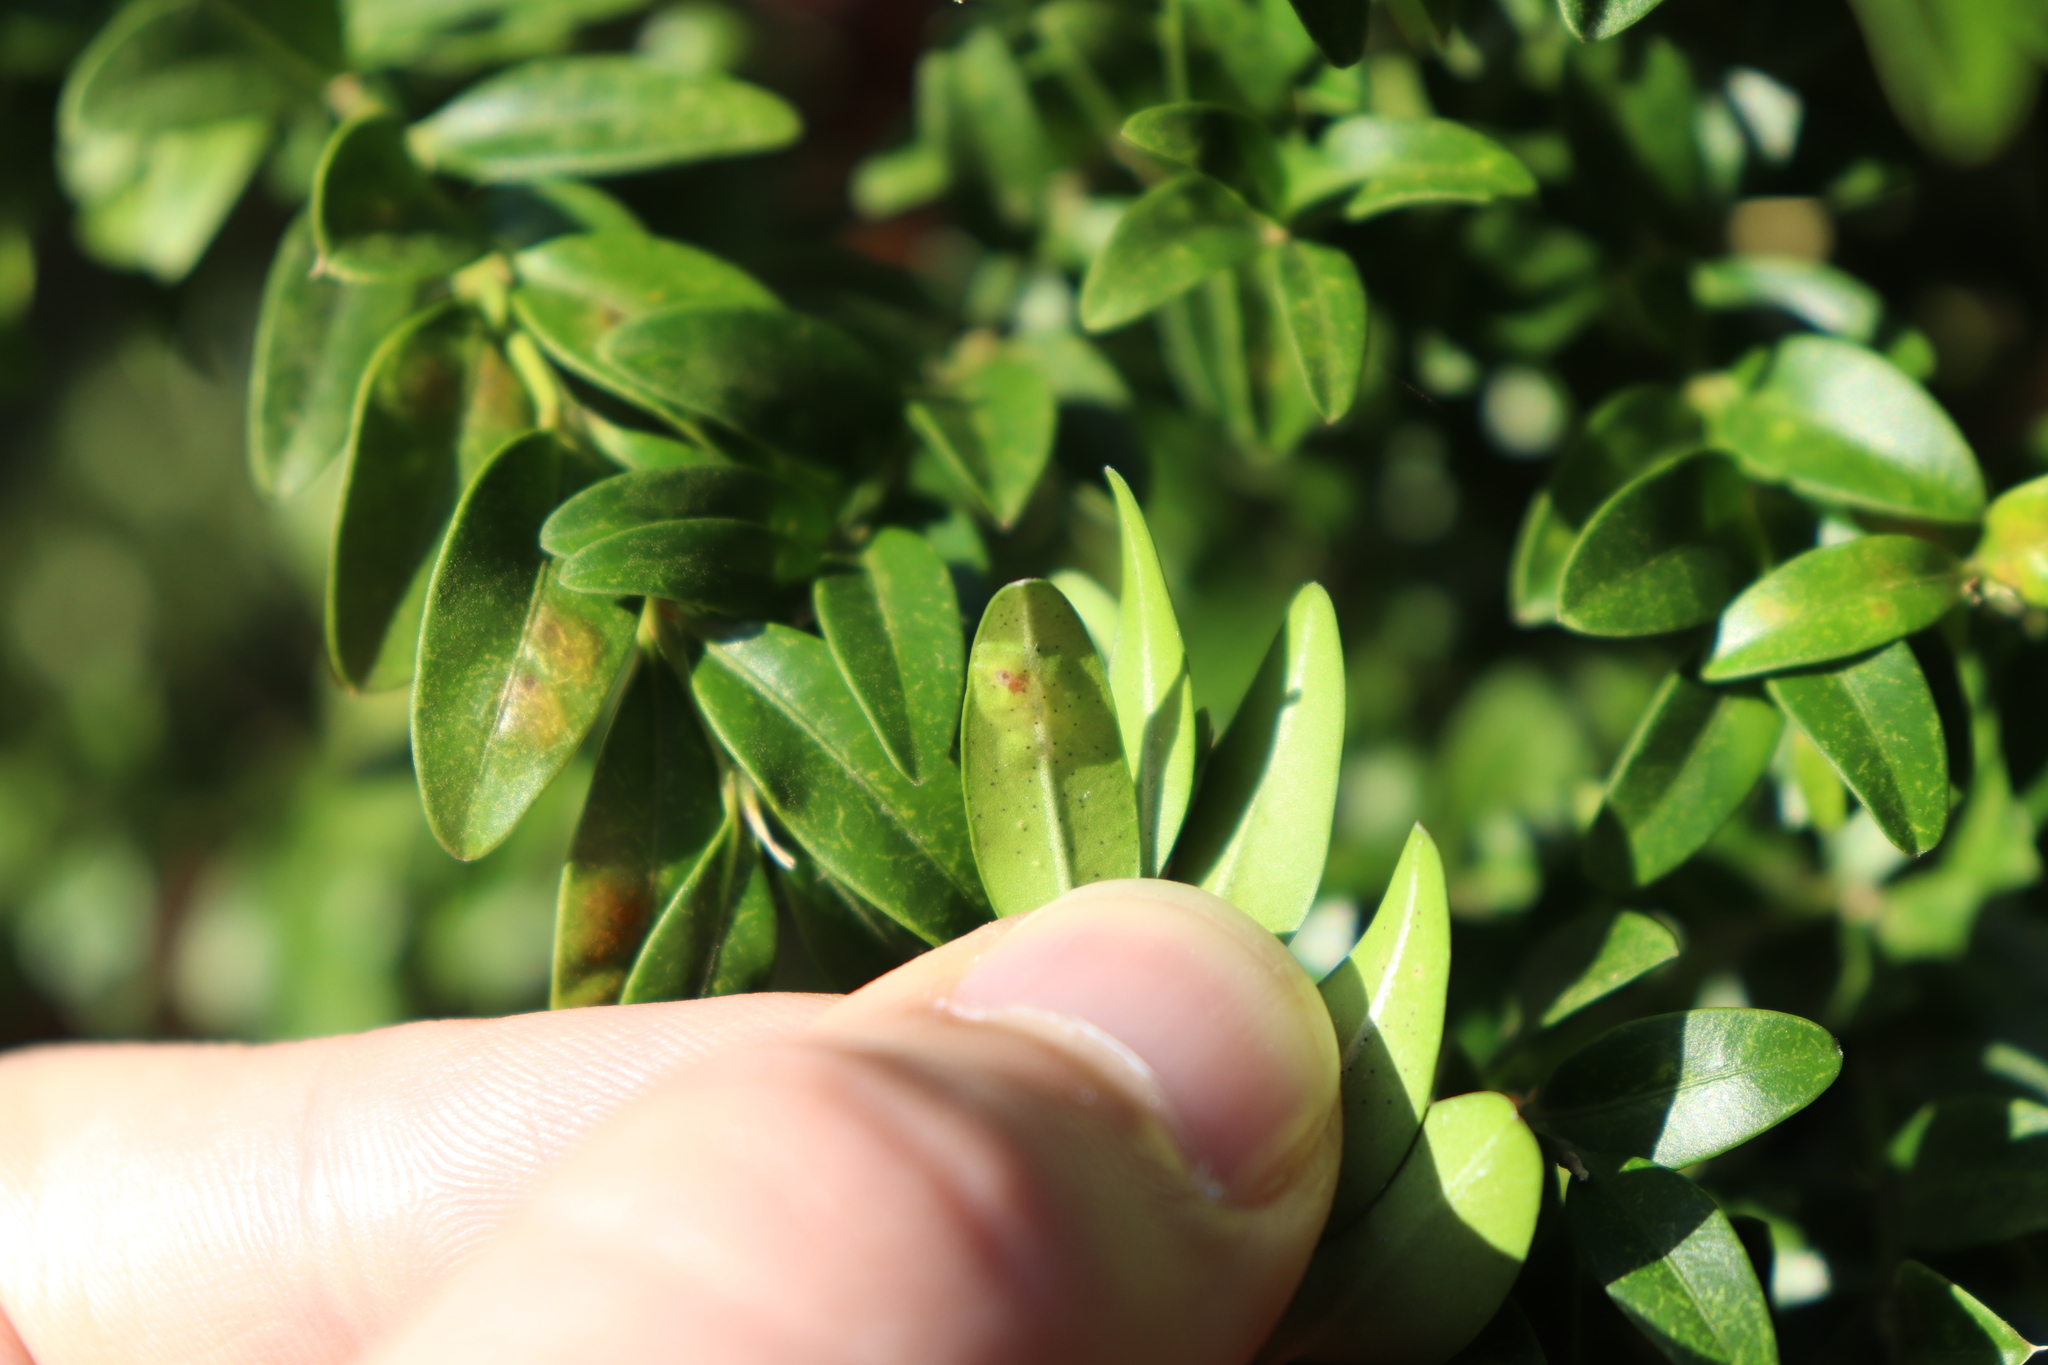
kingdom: Animalia
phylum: Arthropoda
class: Insecta
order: Diptera
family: Cecidomyiidae
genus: Monarthropalpus
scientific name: Monarthropalpus flavus
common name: Boxwood leafminer
